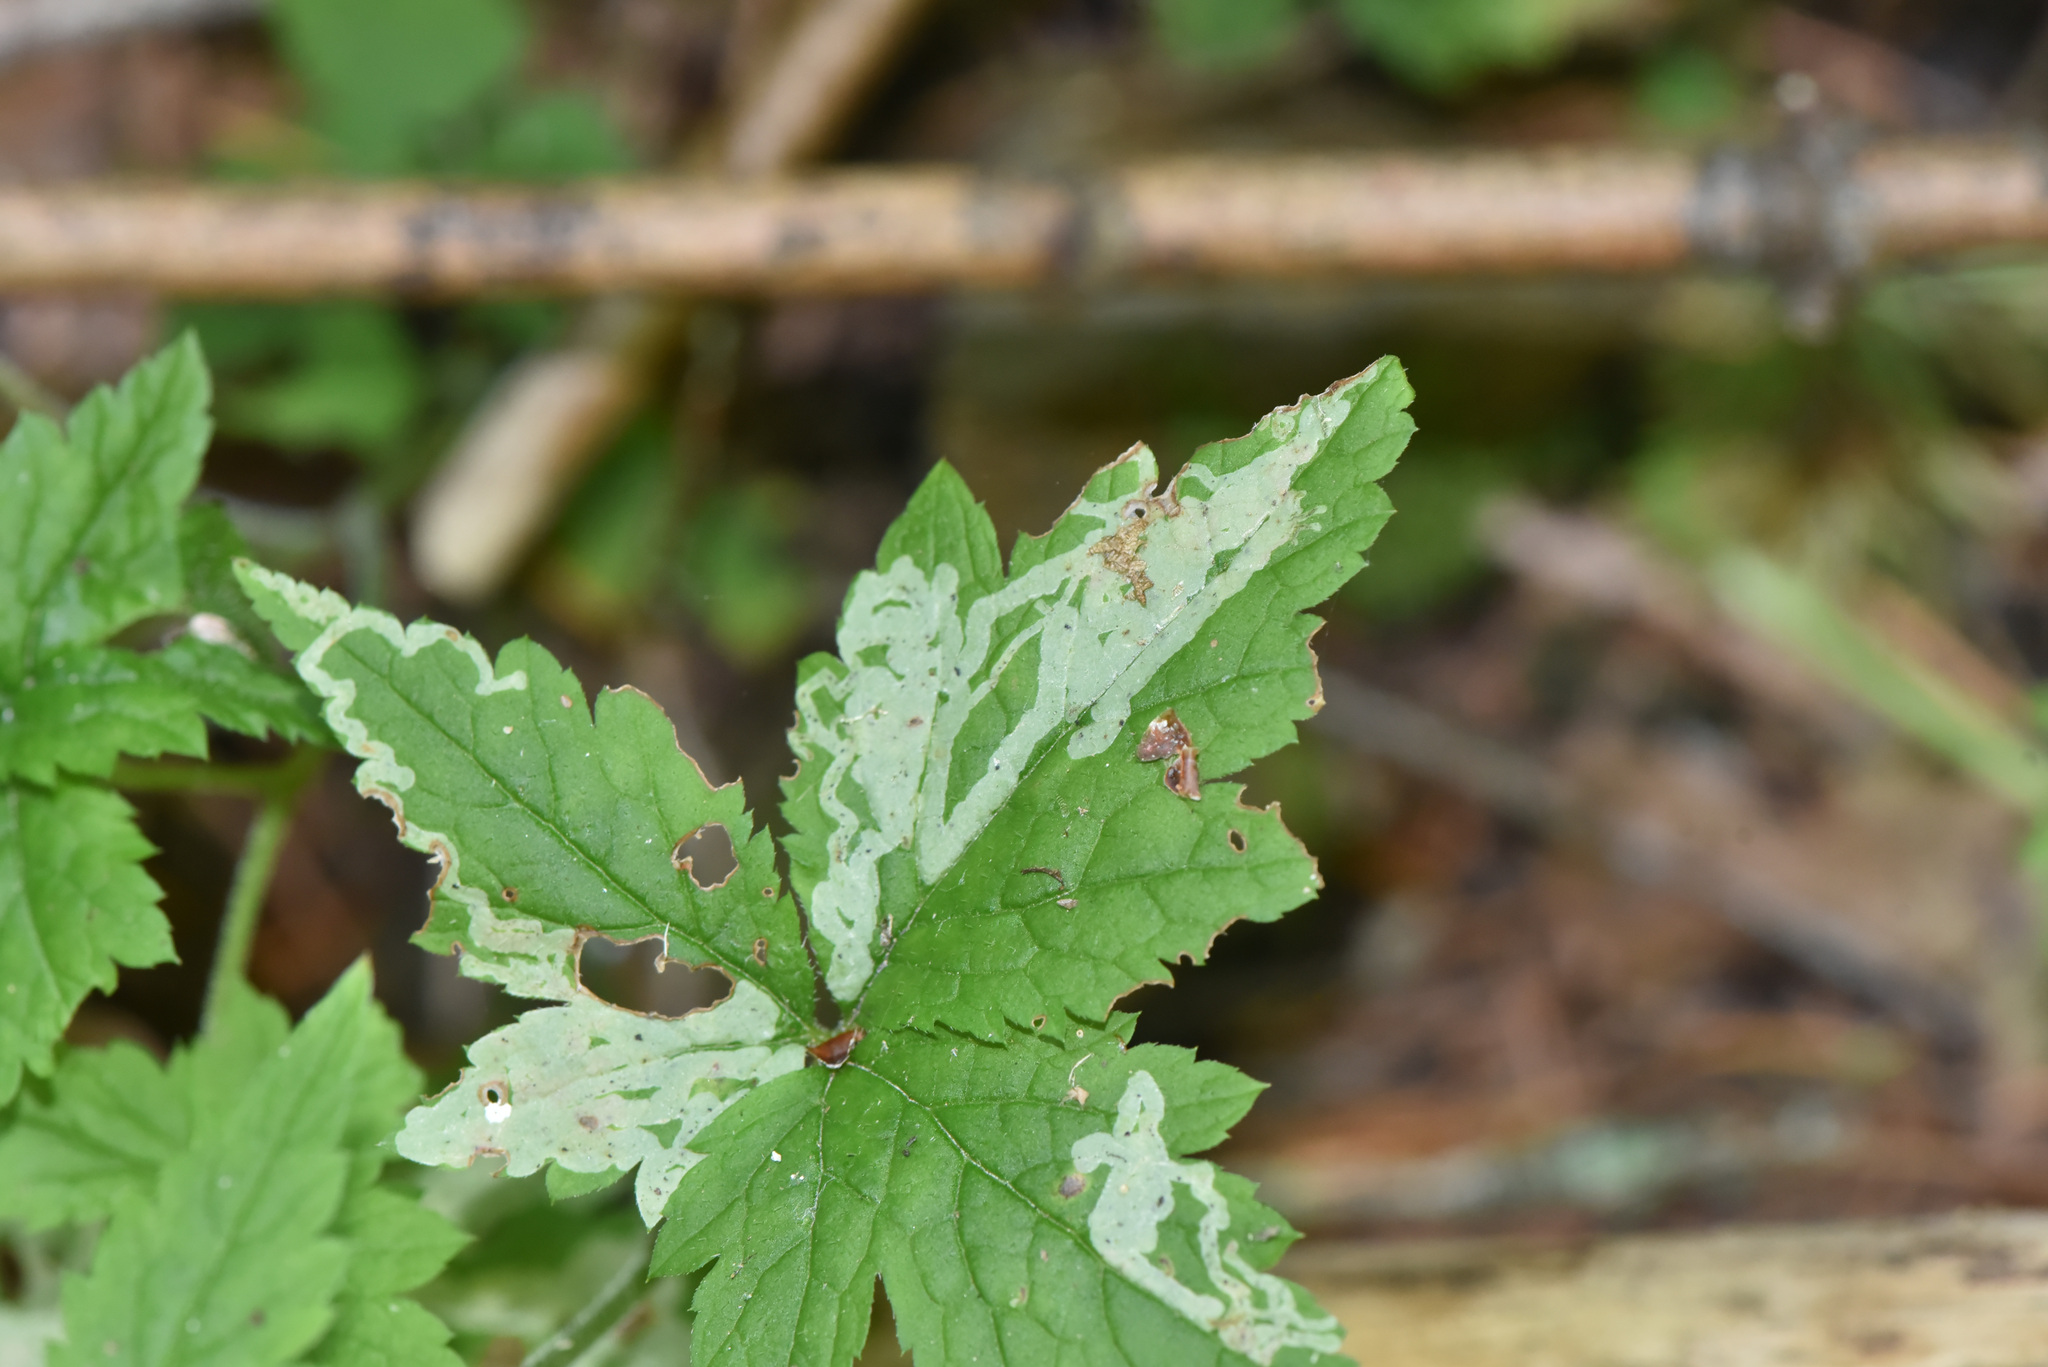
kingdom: Plantae
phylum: Tracheophyta
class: Magnoliopsida
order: Saxifragales
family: Saxifragaceae
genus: Tiarella
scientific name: Tiarella trifoliata
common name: Sugar-scoop
